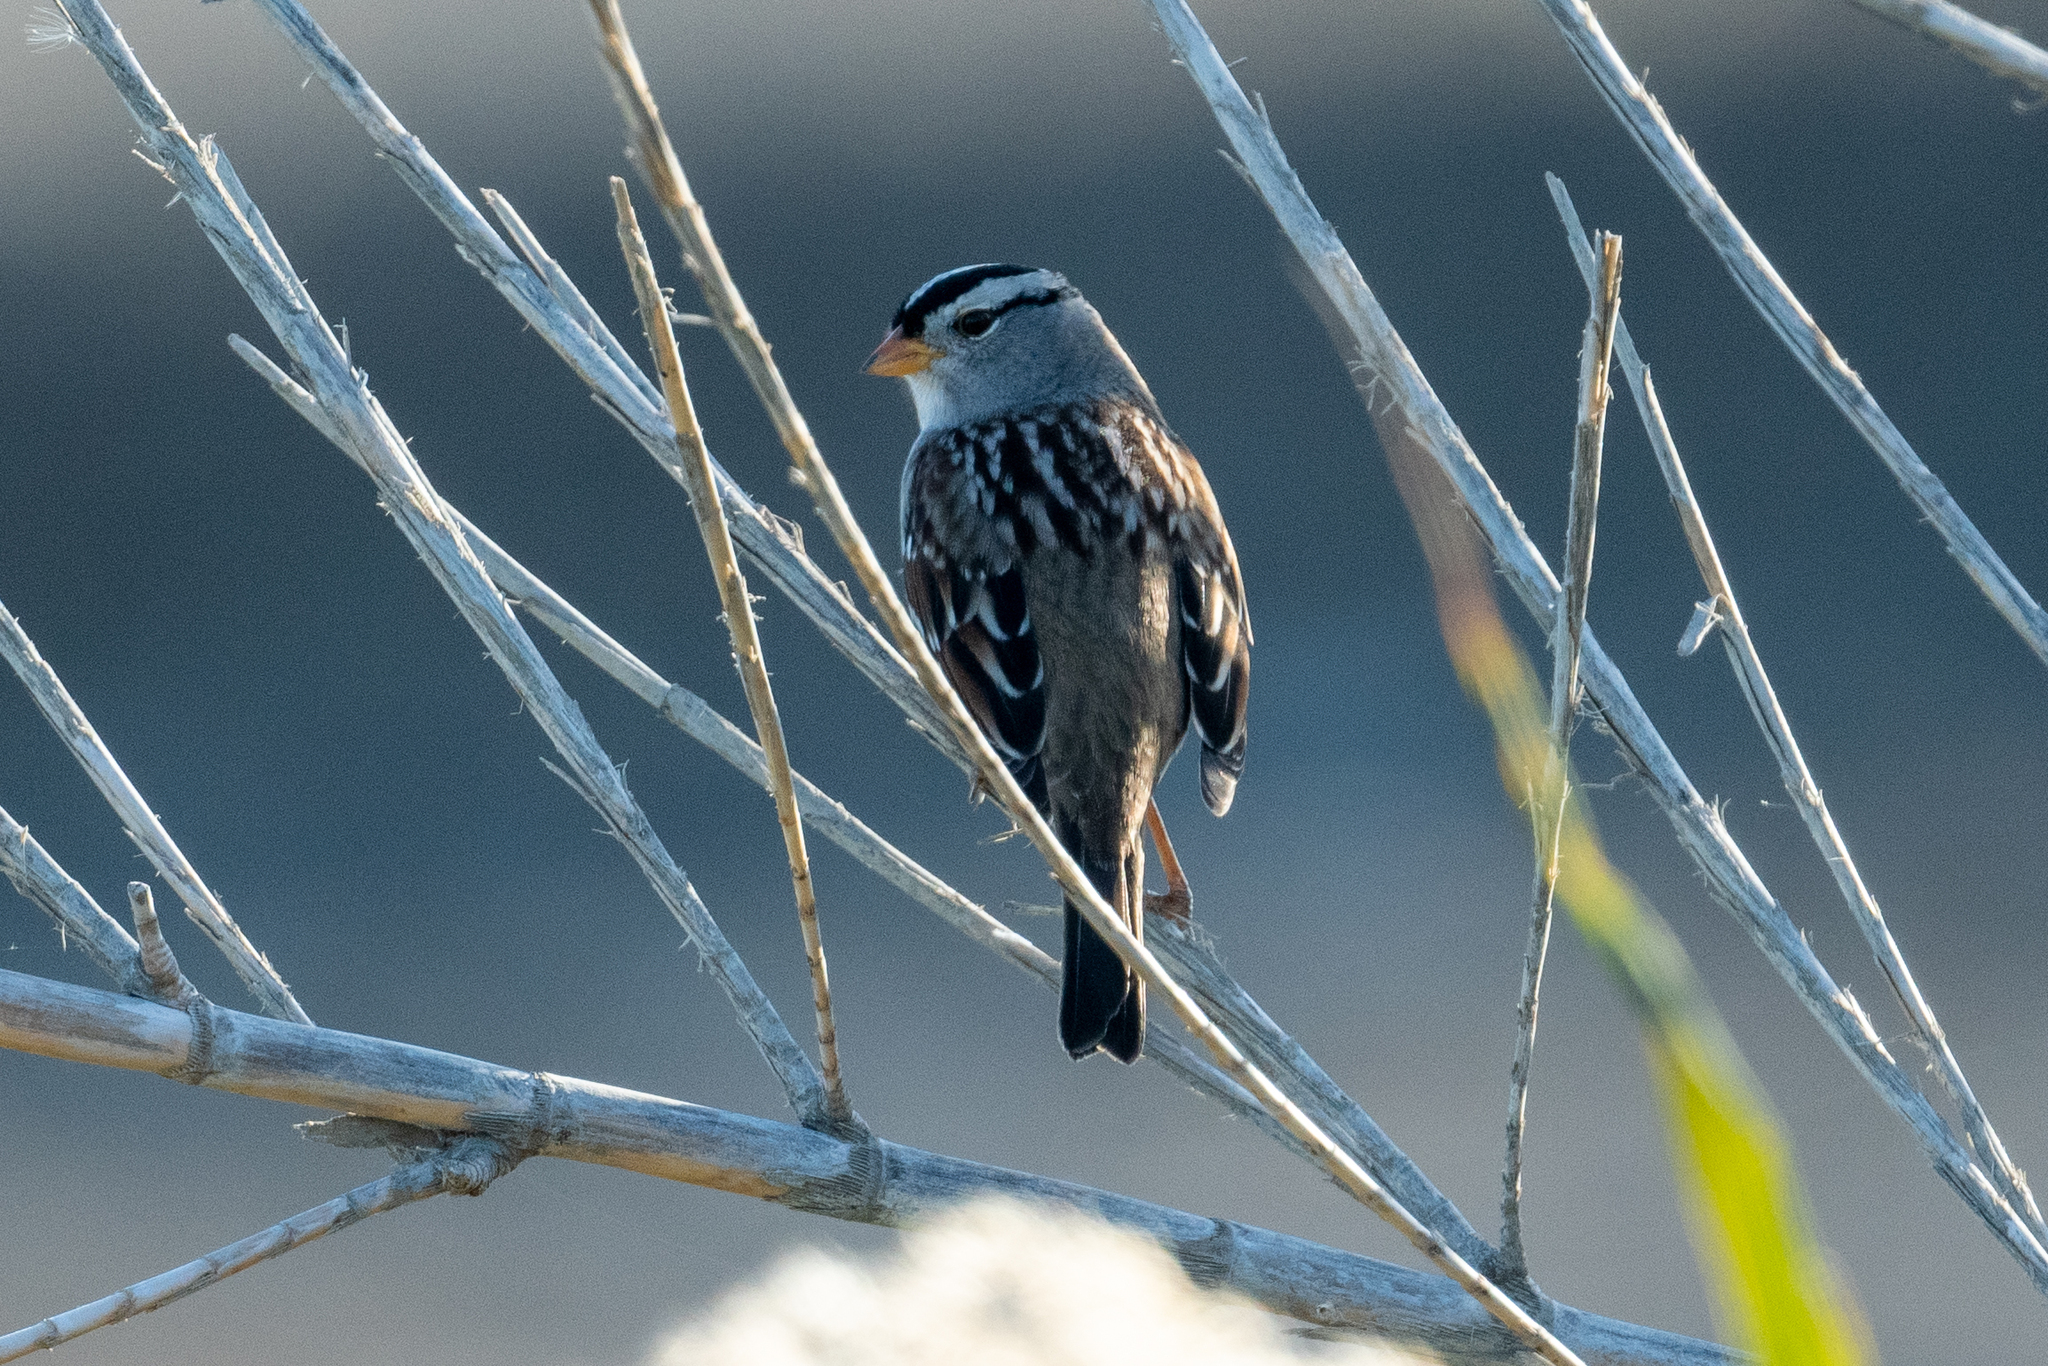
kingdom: Animalia
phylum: Chordata
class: Aves
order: Passeriformes
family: Passerellidae
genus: Zonotrichia
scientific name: Zonotrichia leucophrys
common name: White-crowned sparrow
